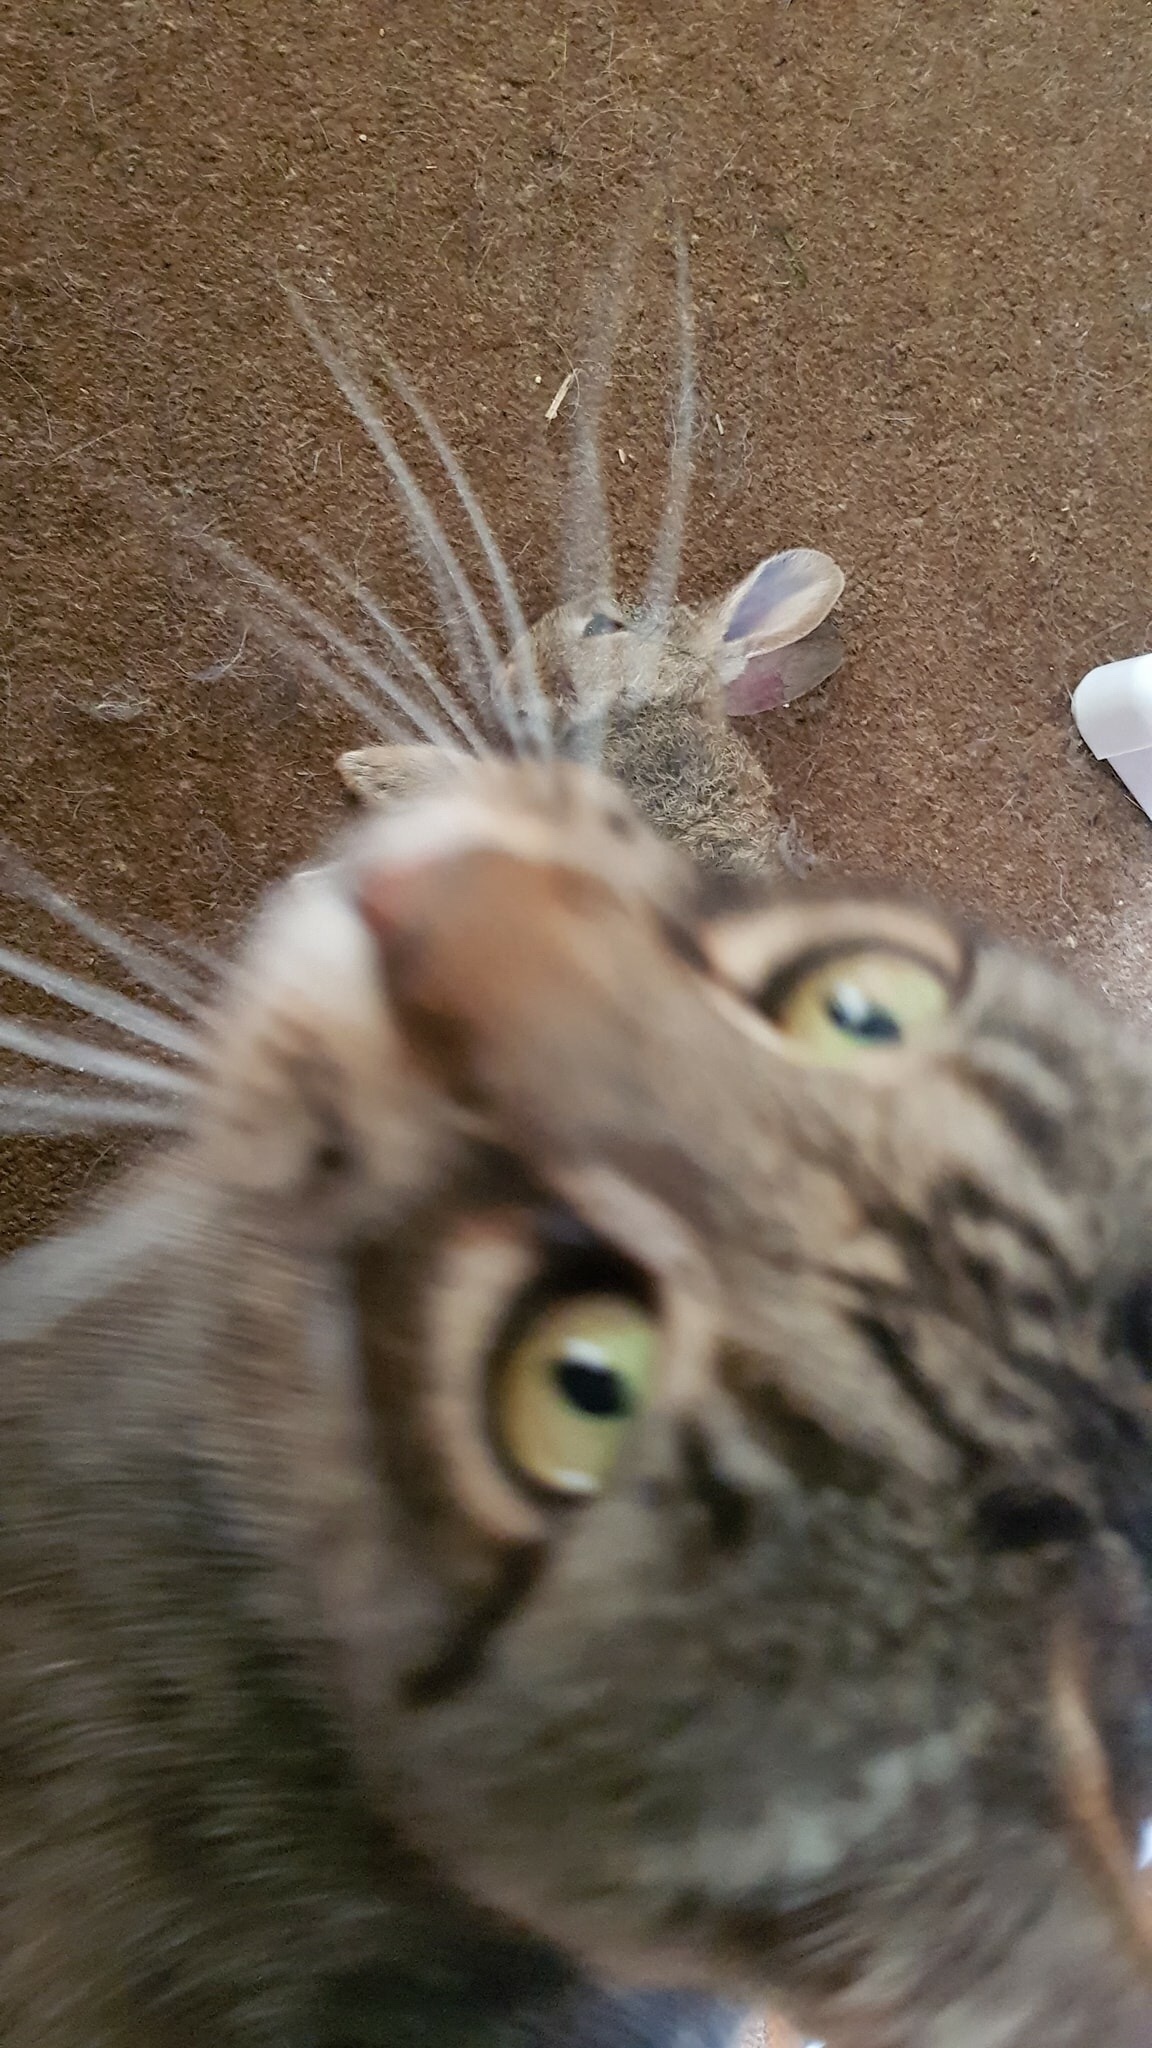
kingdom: Animalia
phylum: Chordata
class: Mammalia
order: Lagomorpha
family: Leporidae
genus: Oryctolagus
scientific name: Oryctolagus cuniculus
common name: European rabbit
